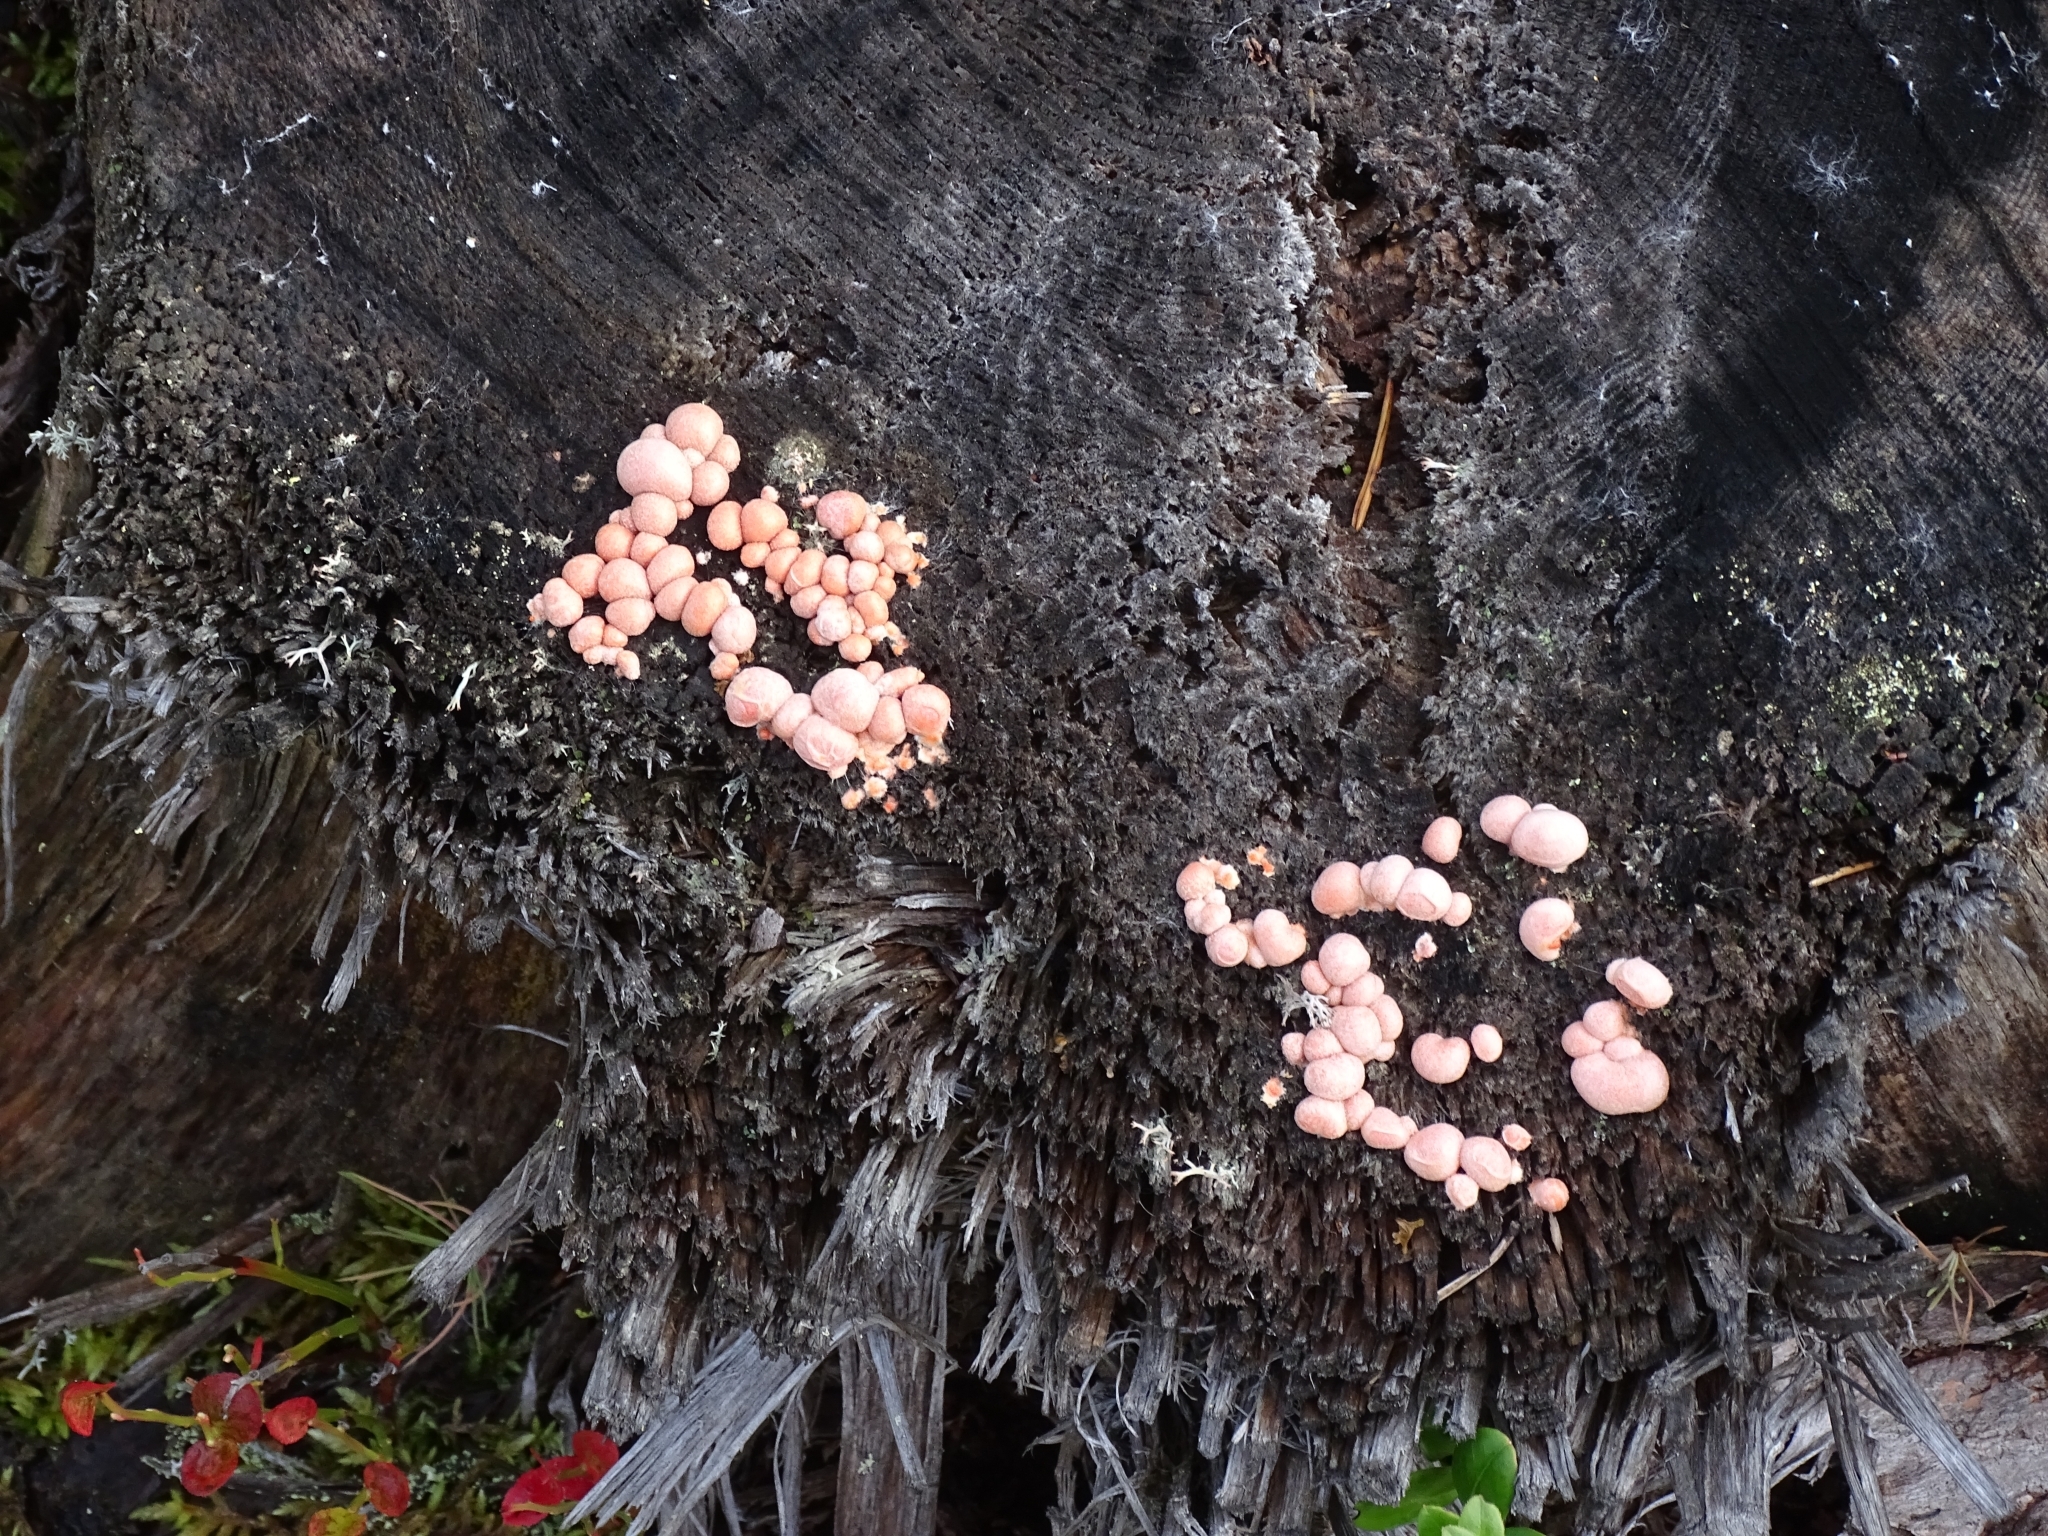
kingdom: Protozoa
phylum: Mycetozoa
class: Myxomycetes
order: Cribrariales
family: Tubiferaceae
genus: Lycogala
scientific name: Lycogala epidendrum
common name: Wolf's milk
